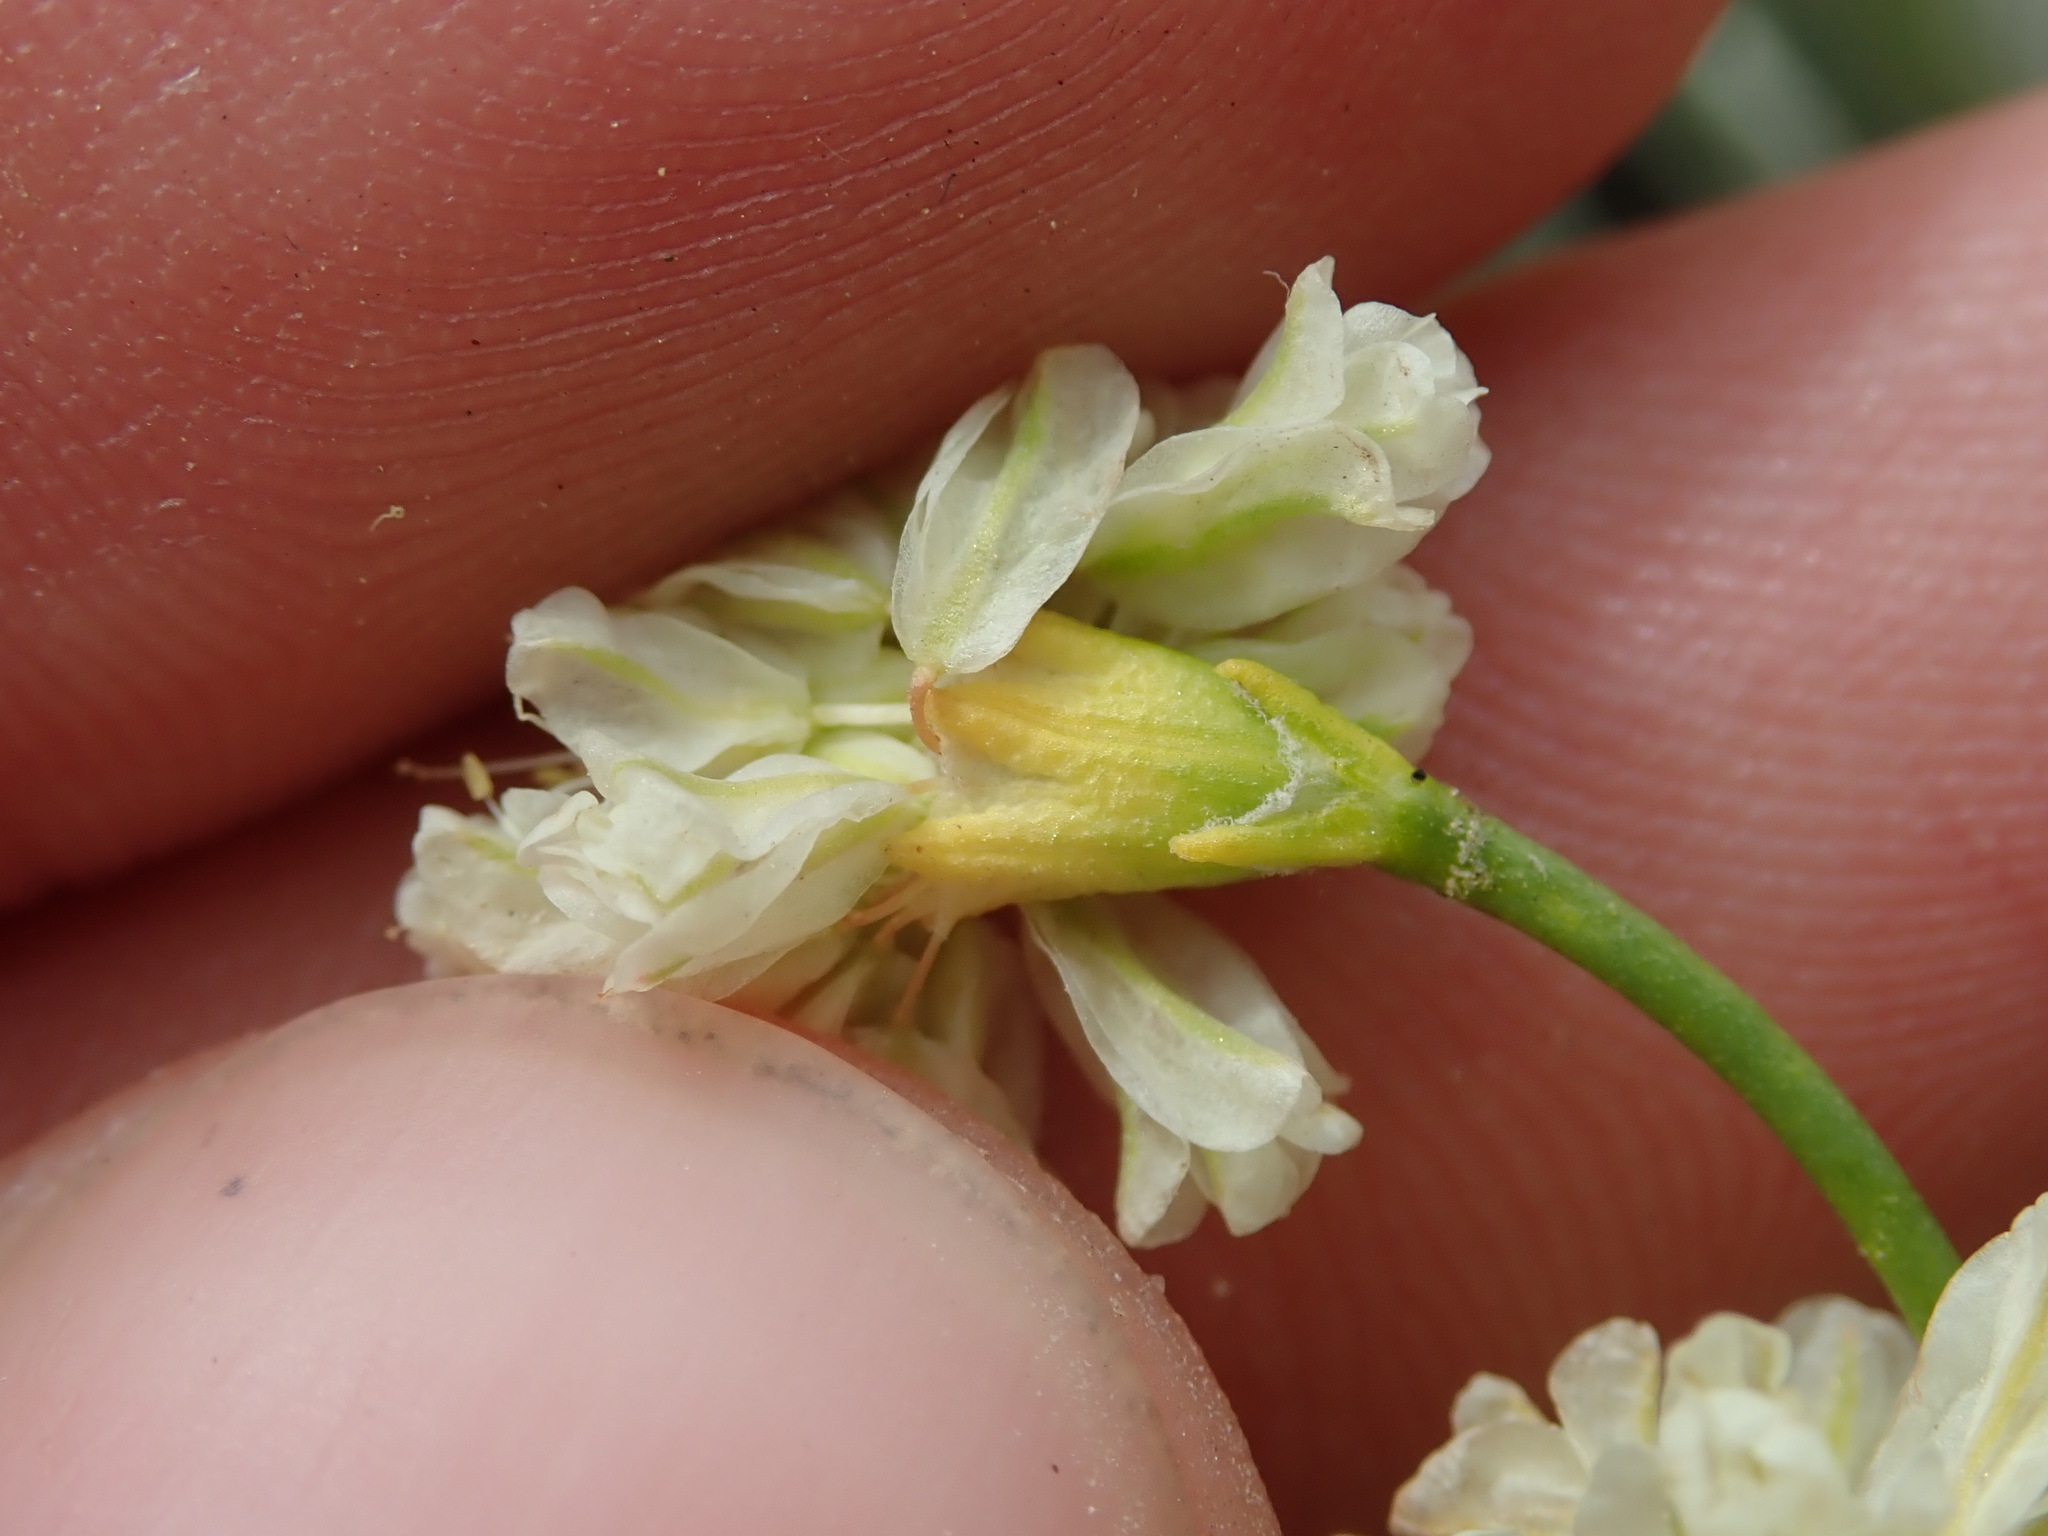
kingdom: Plantae
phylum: Tracheophyta
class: Magnoliopsida
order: Caryophyllales
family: Polygonaceae
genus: Eriogonum
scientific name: Eriogonum strictum
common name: Blue mountain buckwheat
